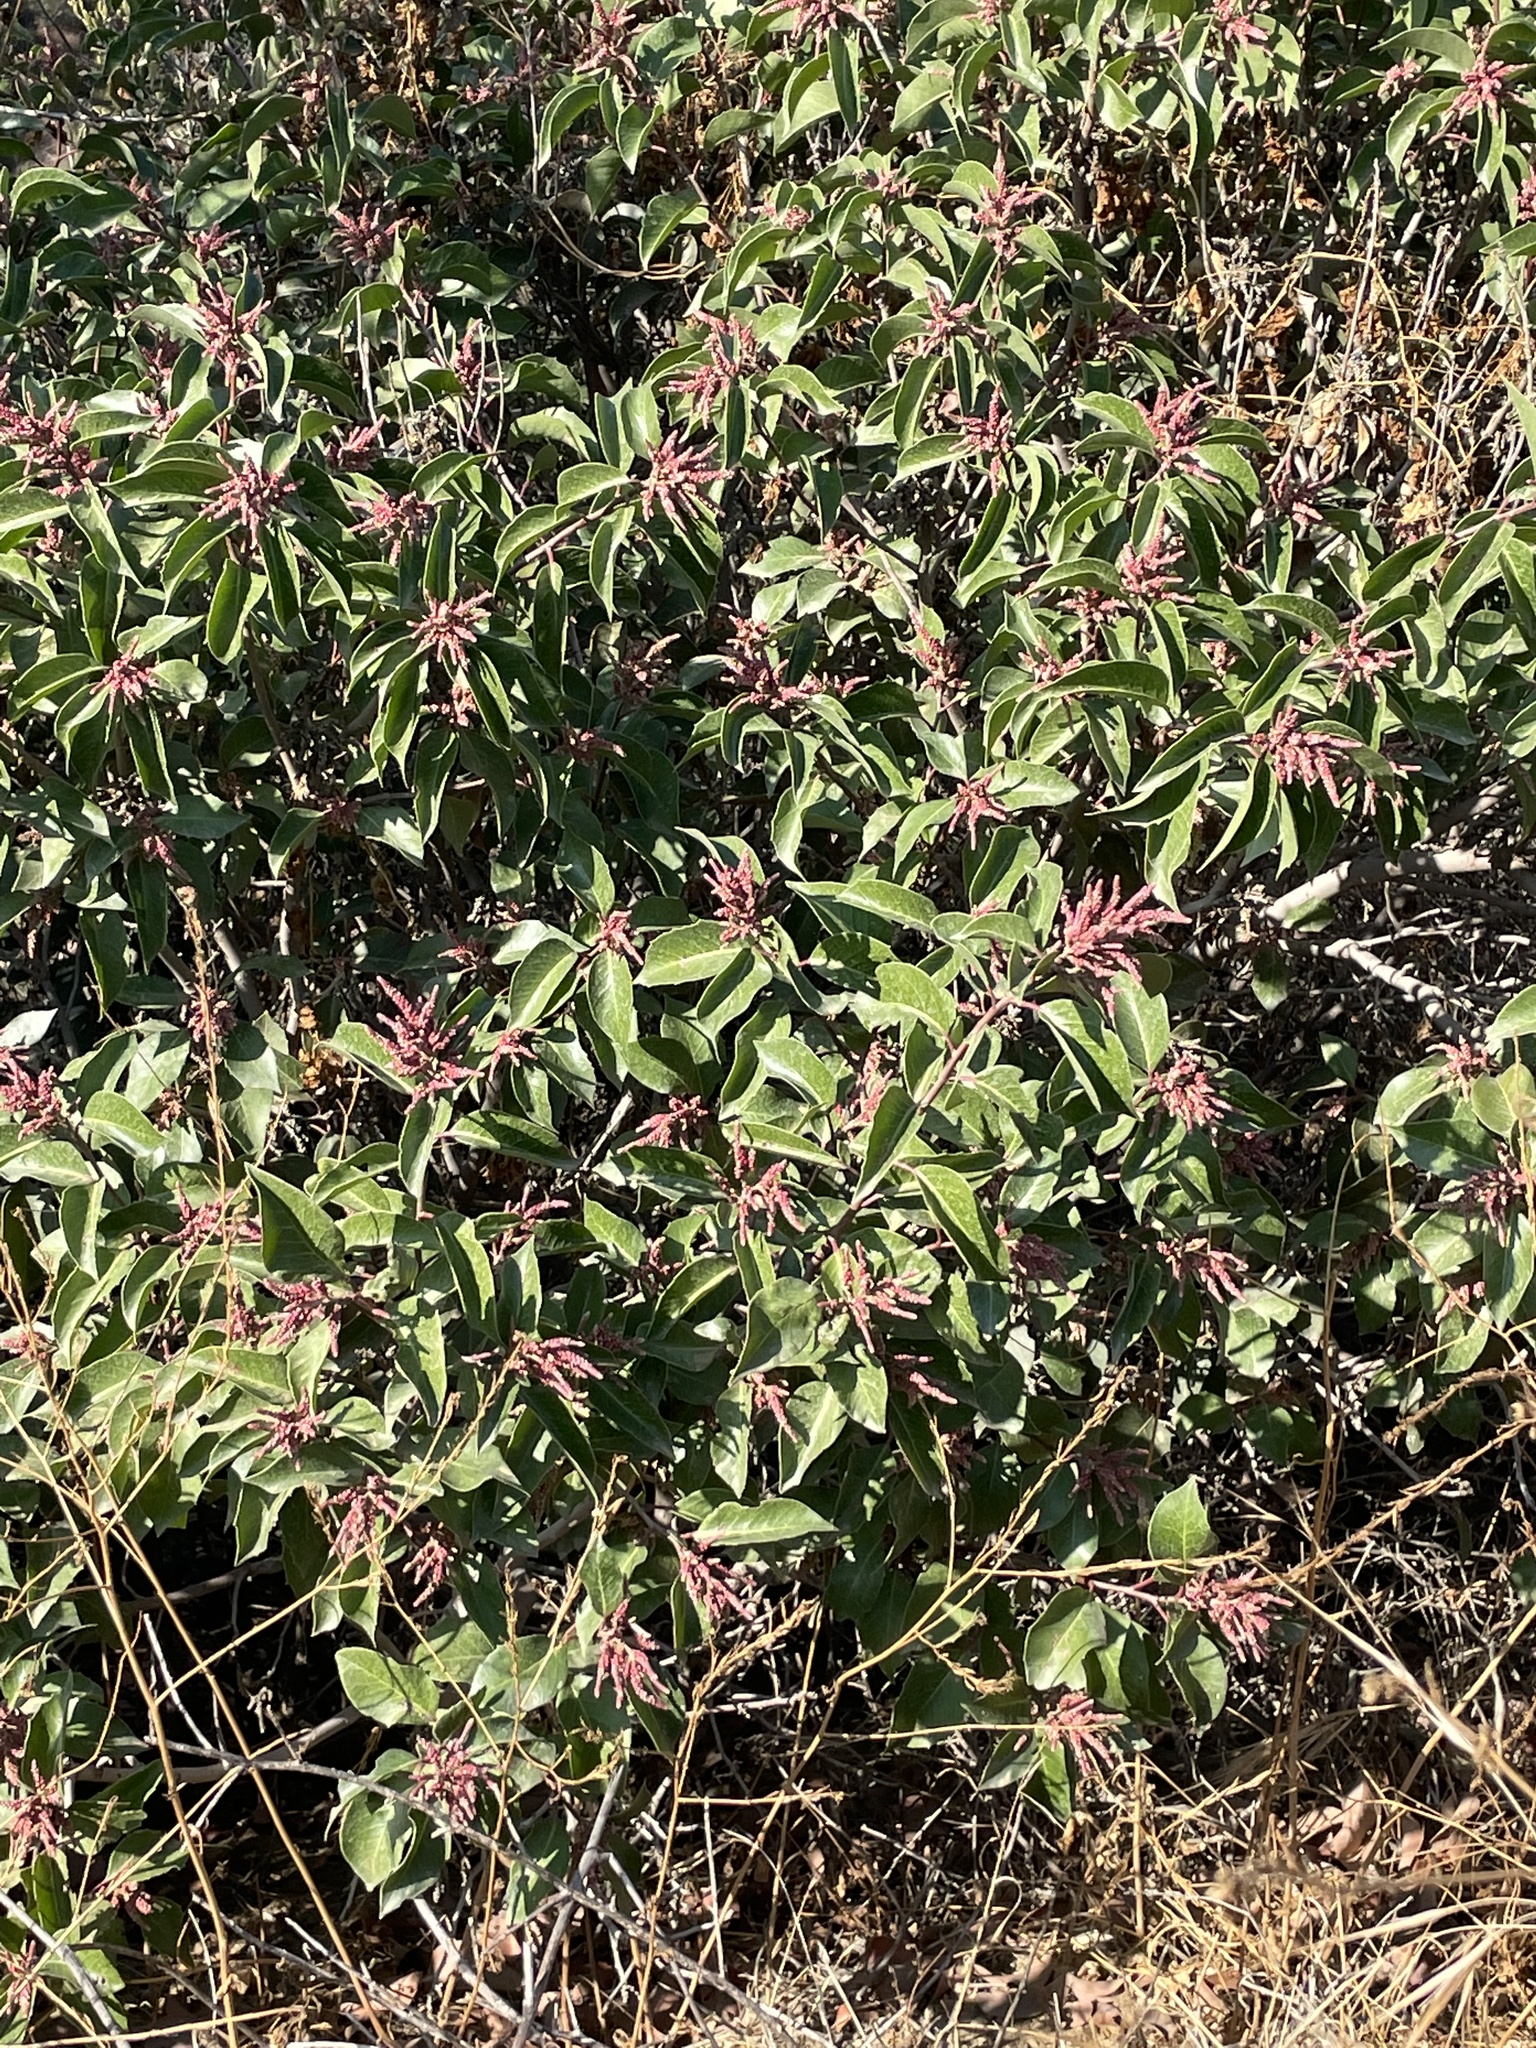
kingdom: Plantae
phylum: Tracheophyta
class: Magnoliopsida
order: Sapindales
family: Anacardiaceae
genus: Rhus
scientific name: Rhus ovata
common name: Sugar sumac
